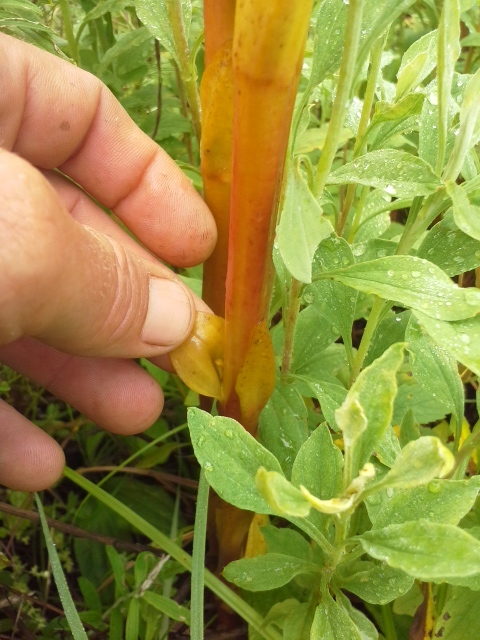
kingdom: Plantae
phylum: Tracheophyta
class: Magnoliopsida
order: Lamiales
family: Orobanchaceae
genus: Harveya
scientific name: Harveya speciosa
